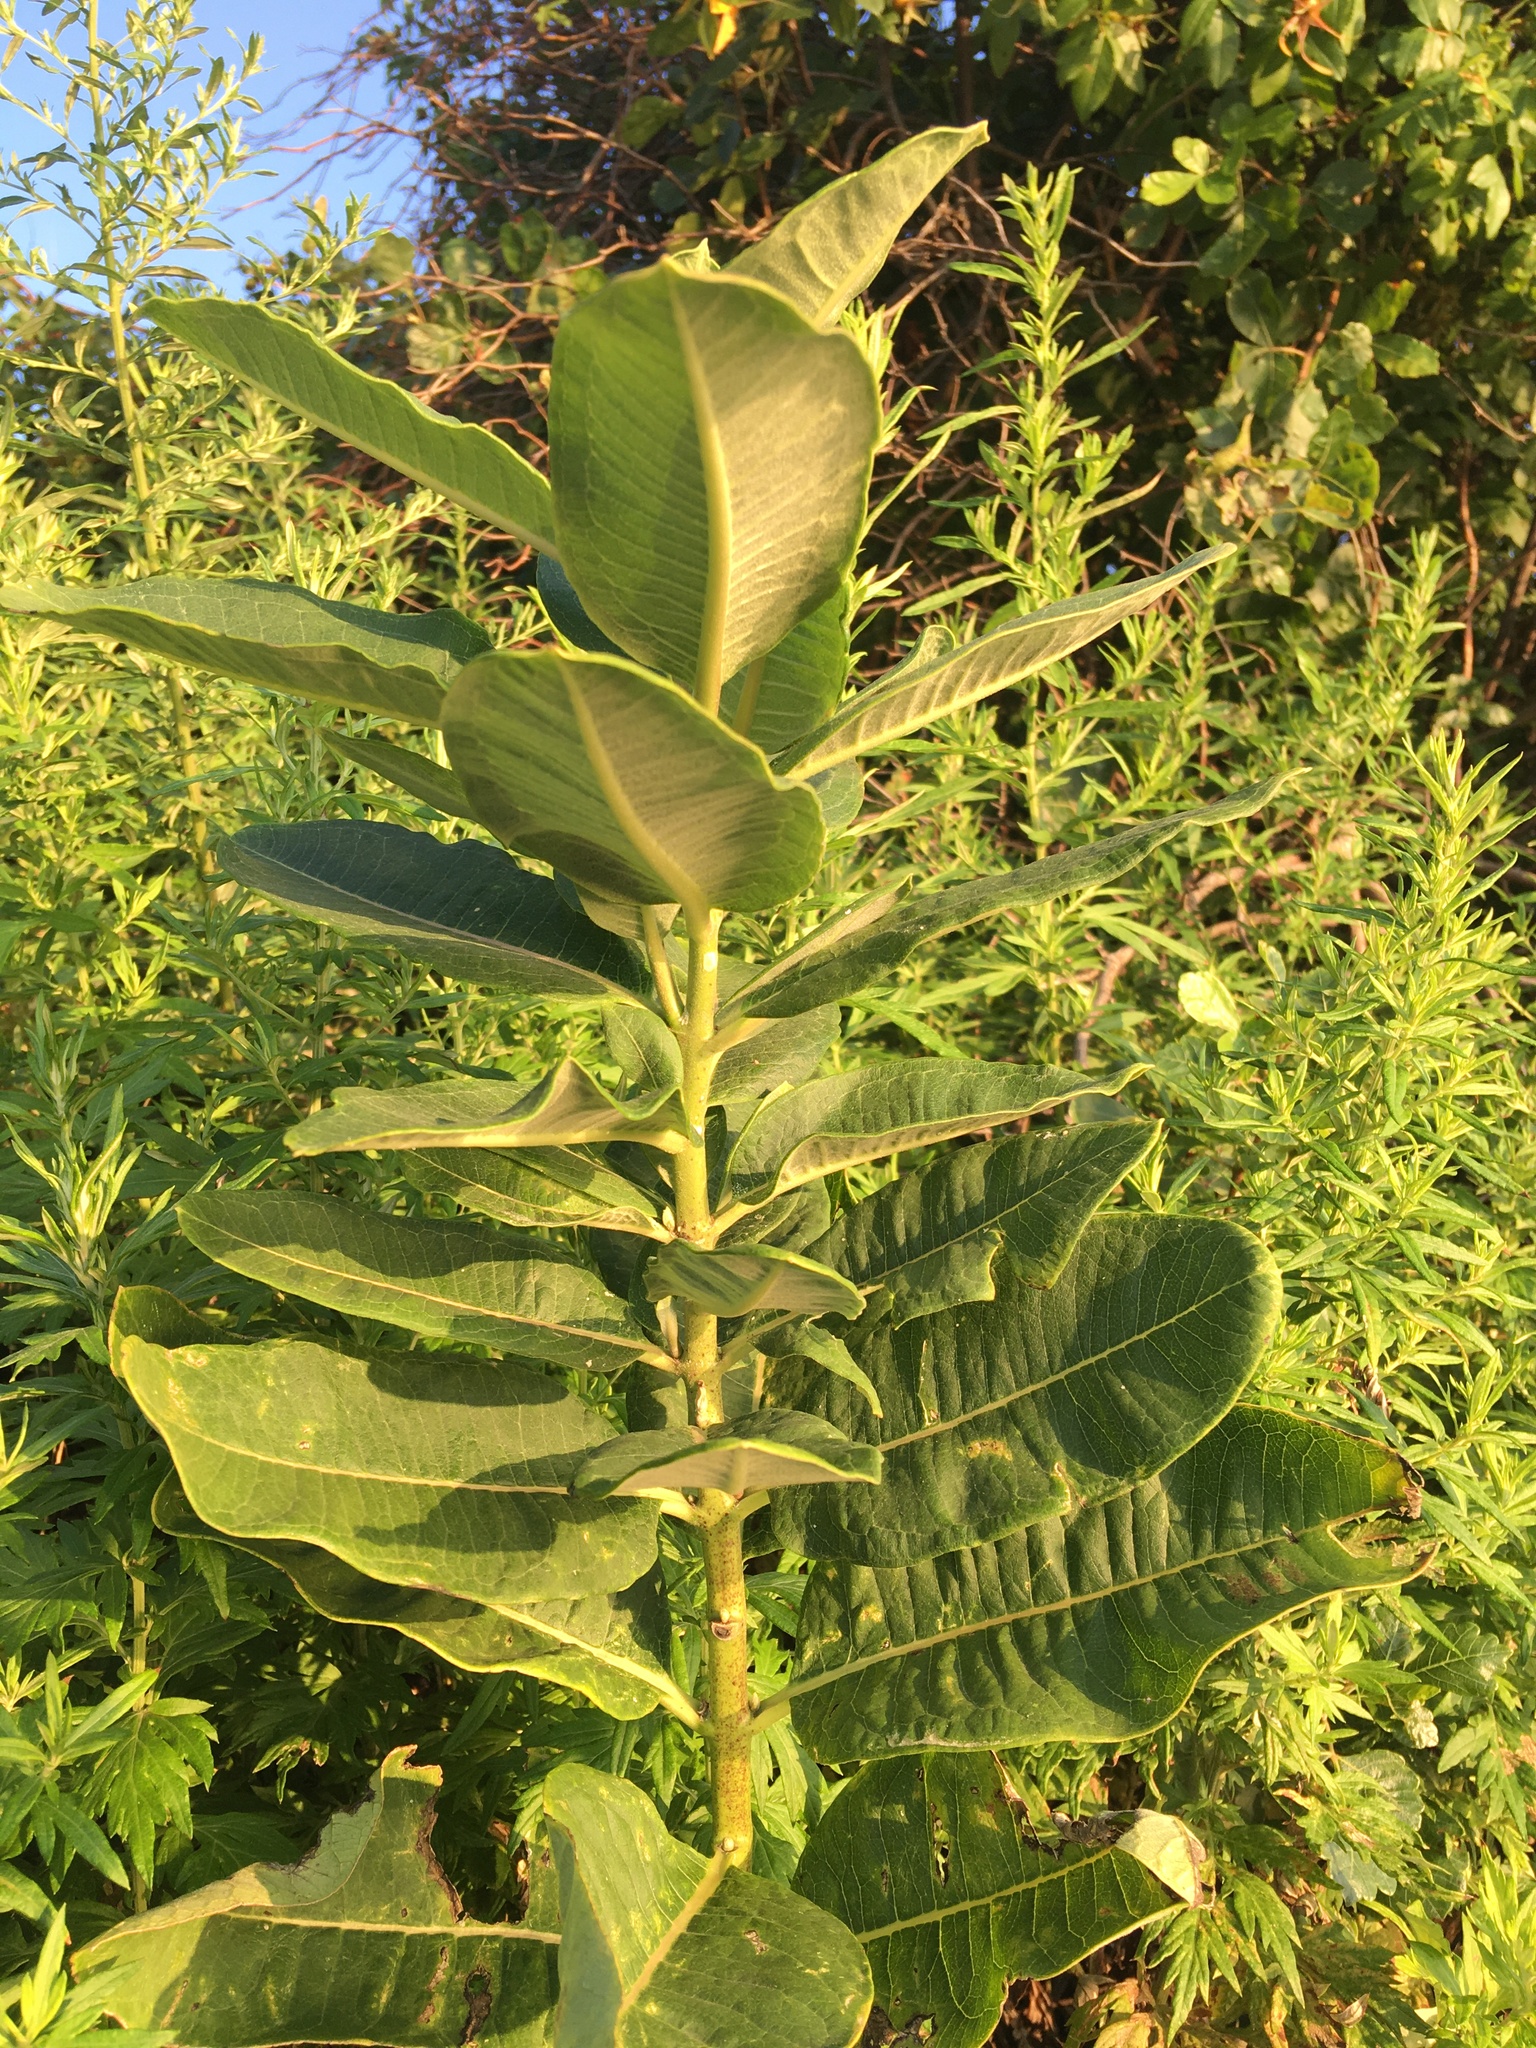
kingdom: Plantae
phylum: Tracheophyta
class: Magnoliopsida
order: Gentianales
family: Apocynaceae
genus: Asclepias
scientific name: Asclepias syriaca
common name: Common milkweed
